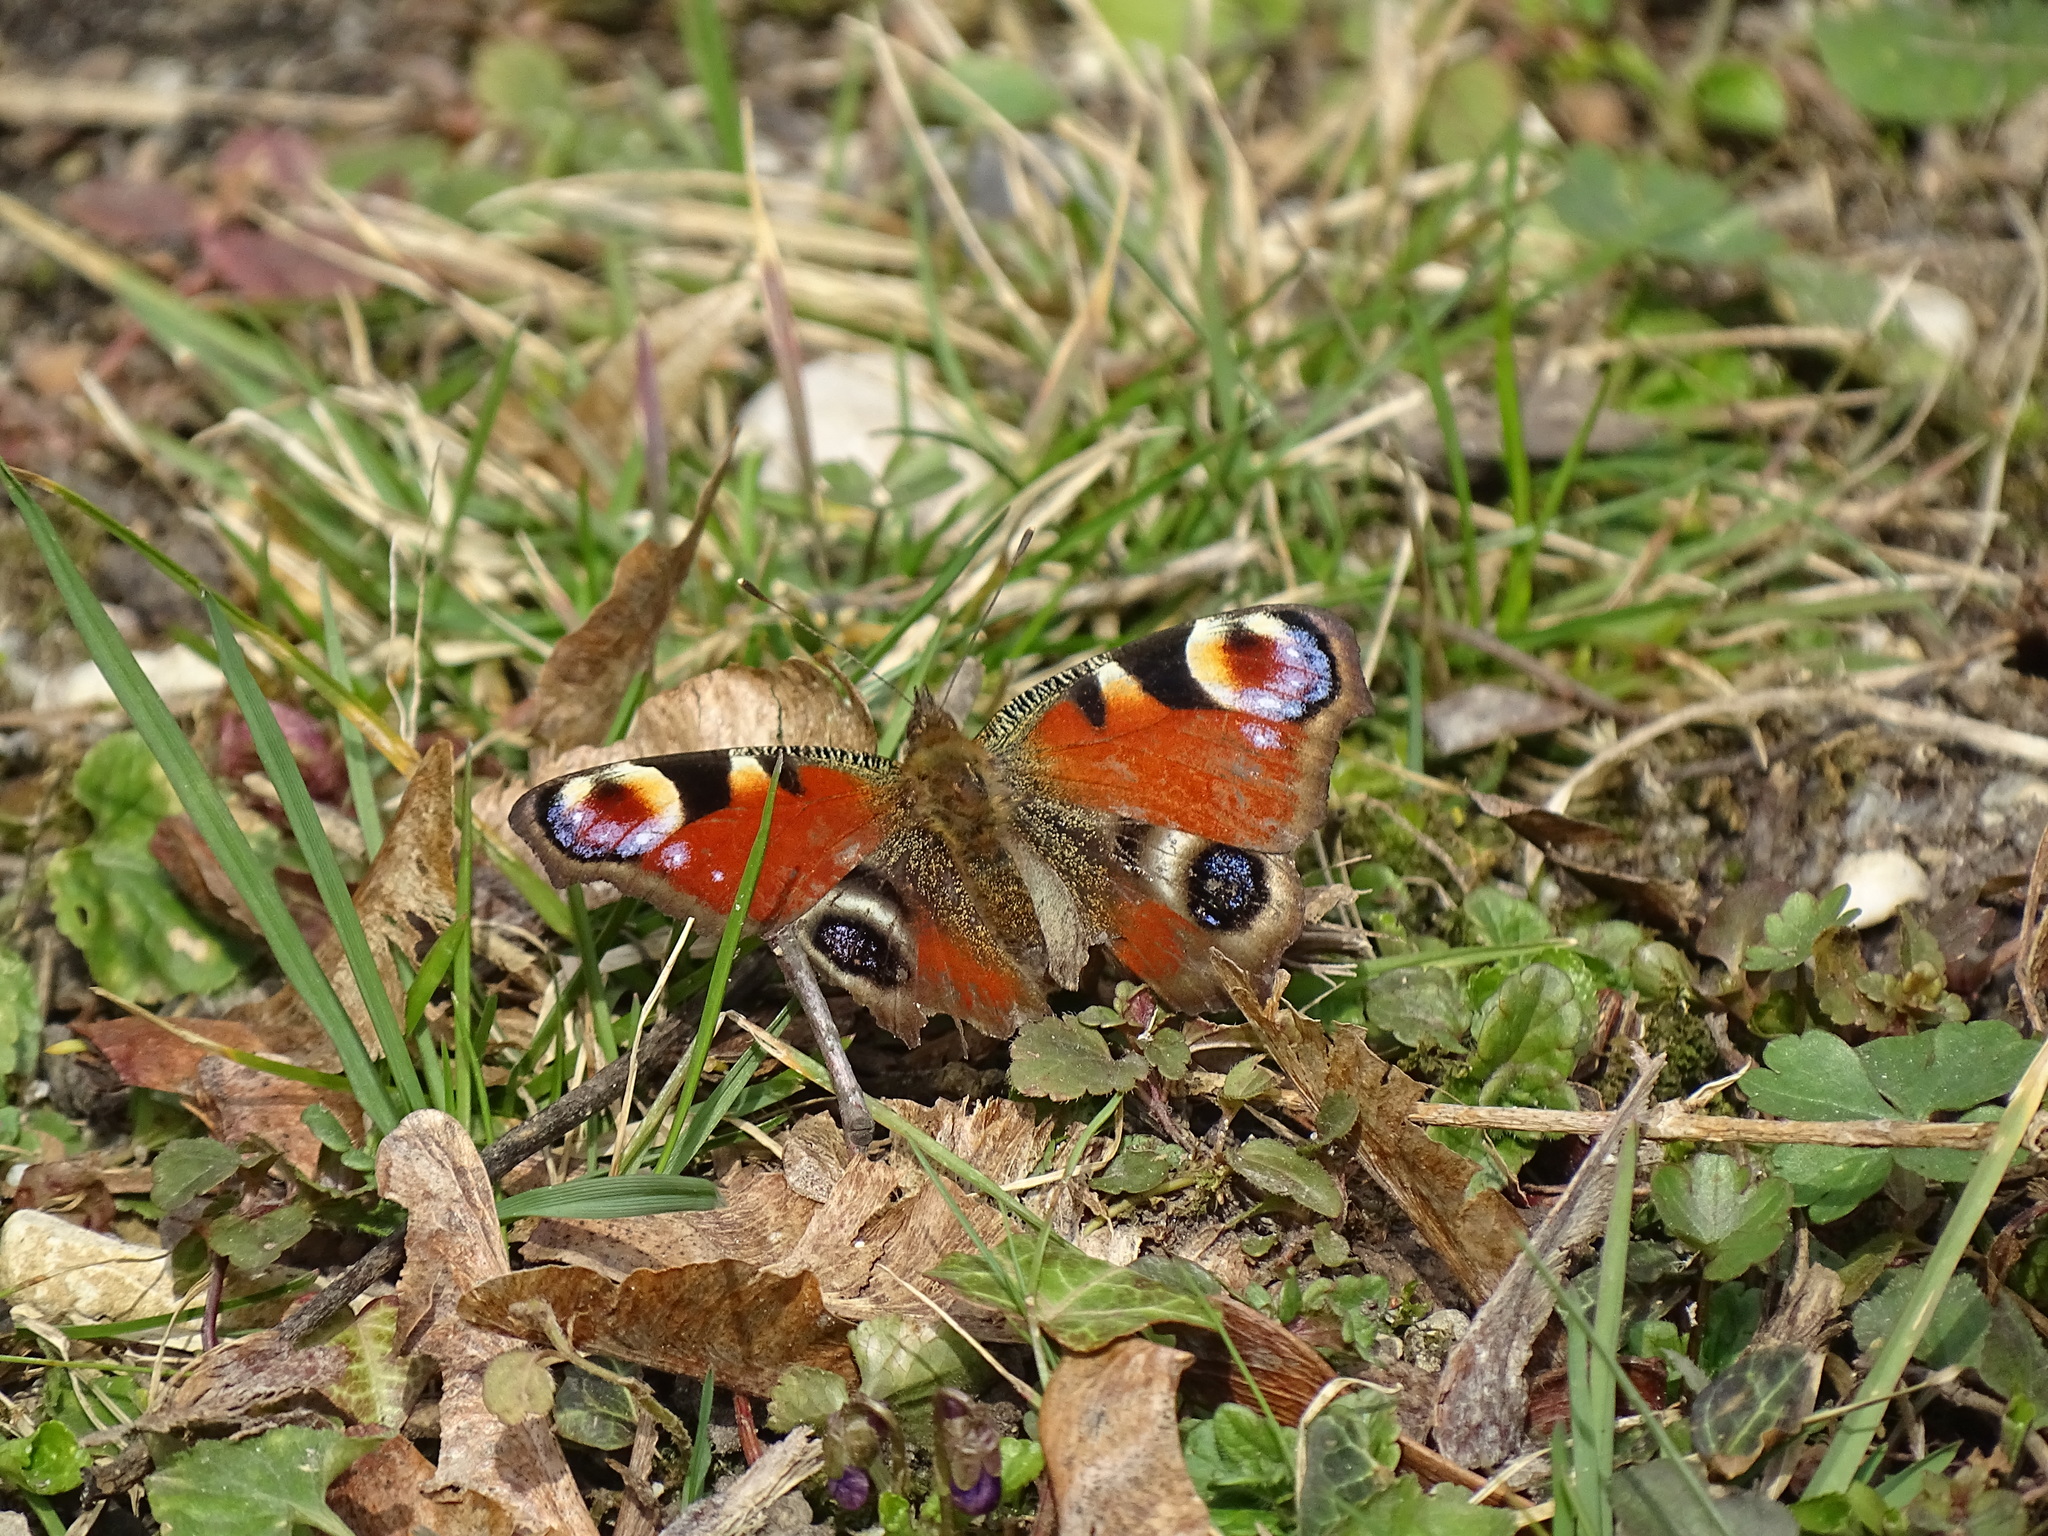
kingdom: Animalia
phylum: Arthropoda
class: Insecta
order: Lepidoptera
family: Nymphalidae
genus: Aglais
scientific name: Aglais io
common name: Peacock
